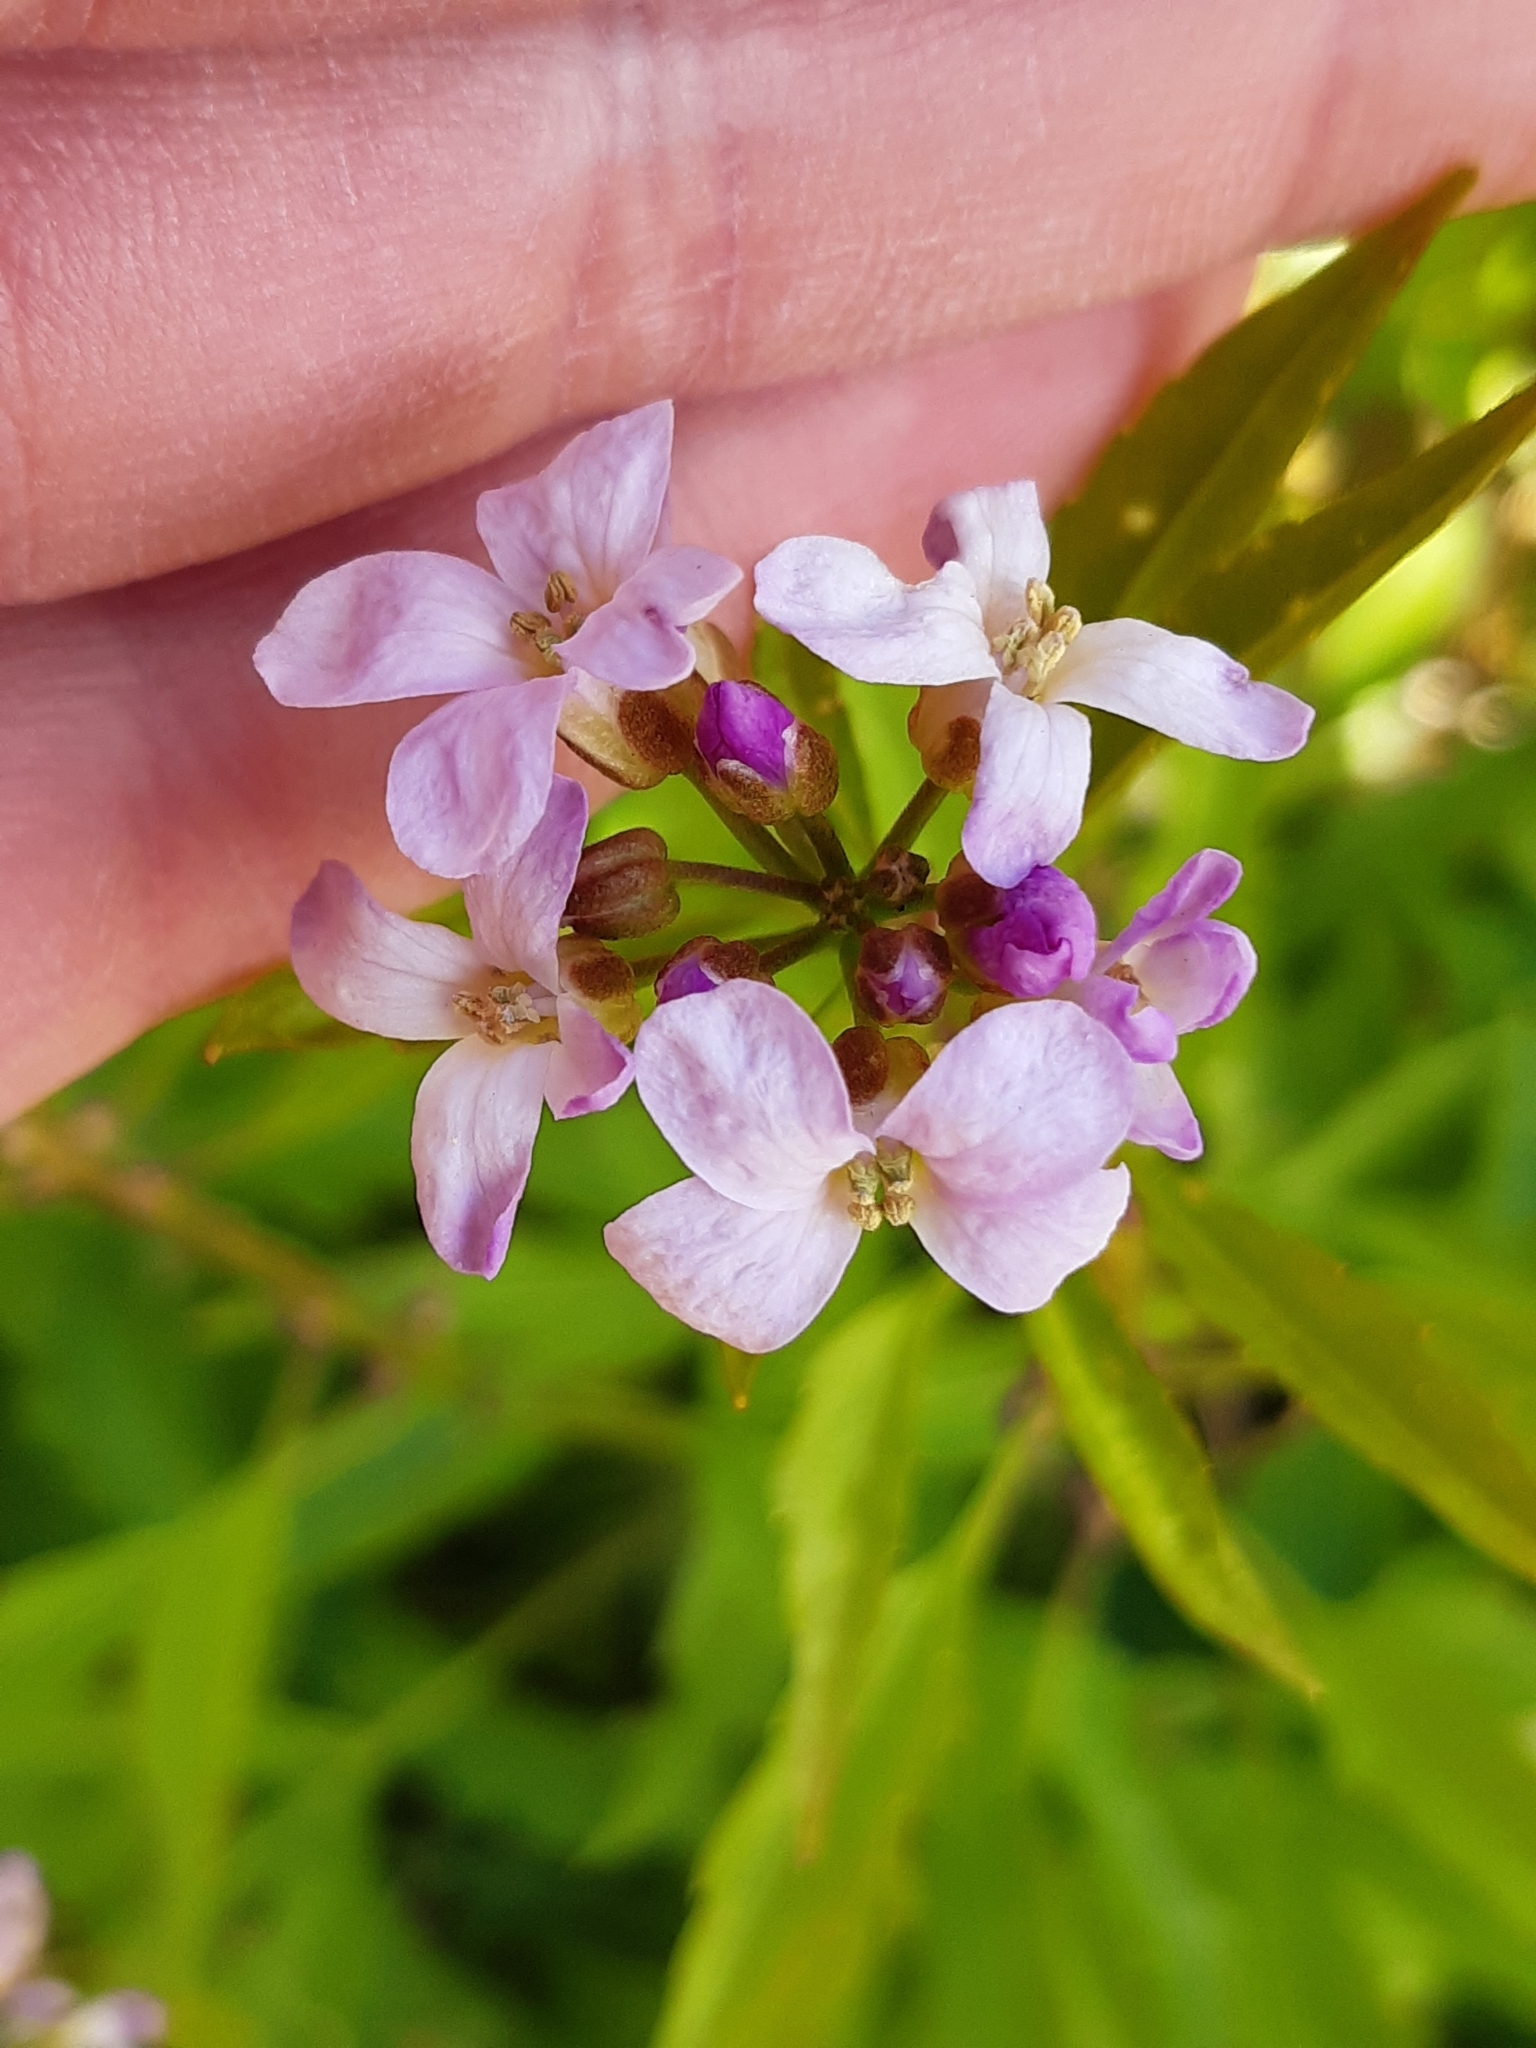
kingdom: Plantae
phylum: Tracheophyta
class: Magnoliopsida
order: Brassicales
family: Brassicaceae
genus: Cardamine
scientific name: Cardamine bulbifera
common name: Coralroot bittercress
